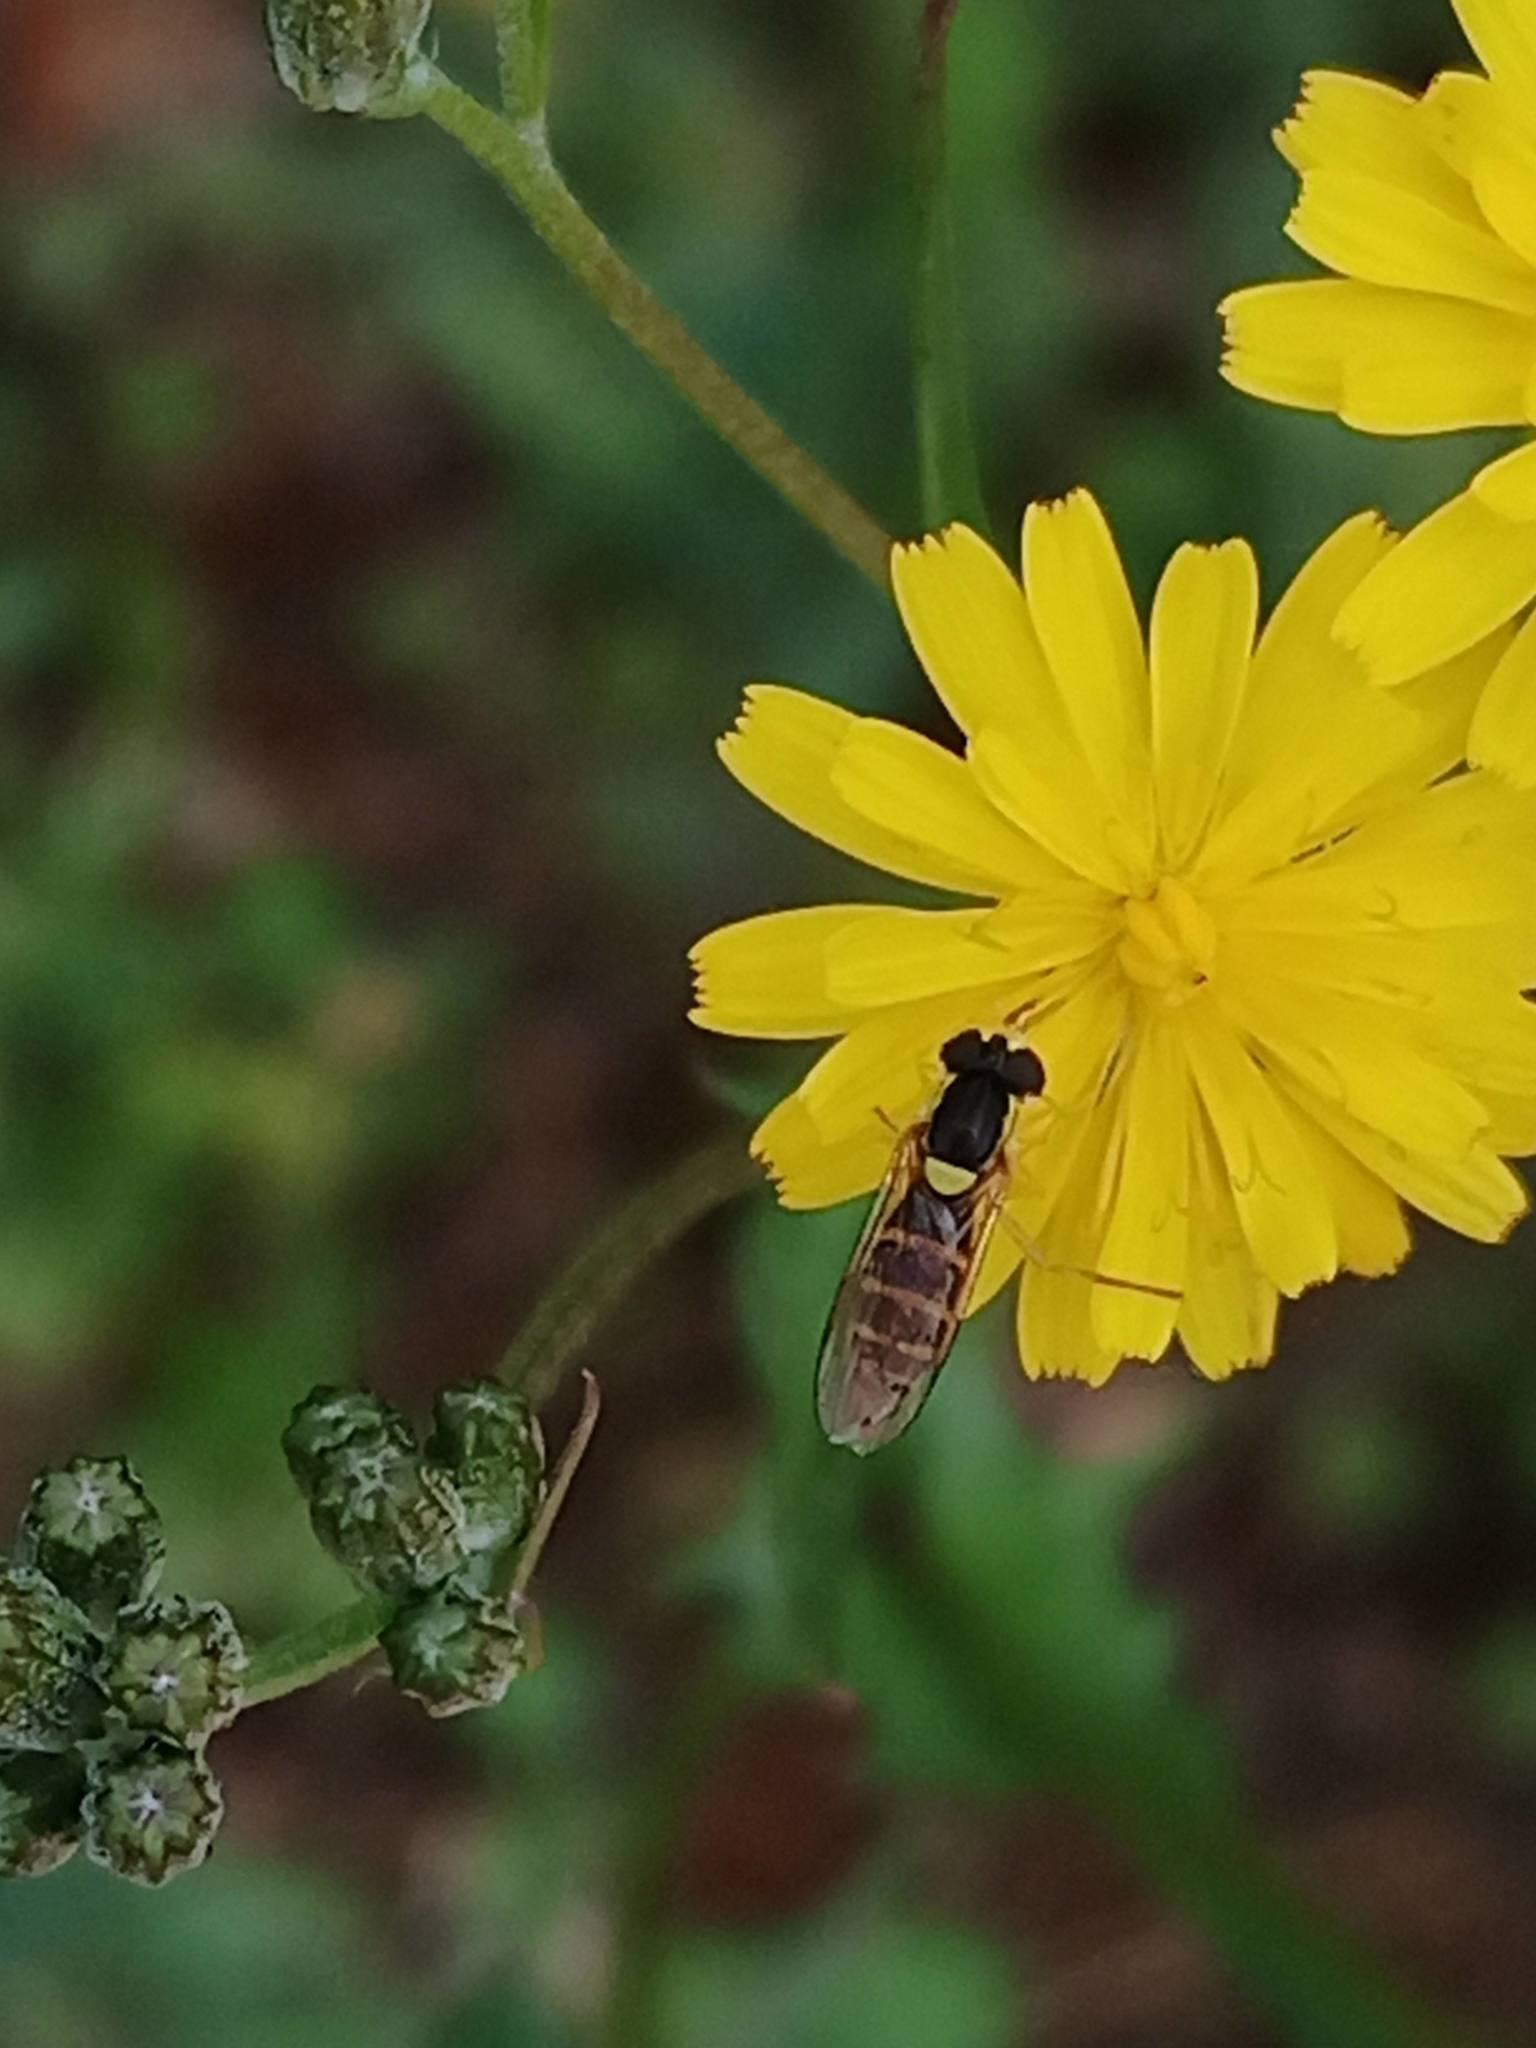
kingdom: Animalia
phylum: Arthropoda
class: Insecta
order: Diptera
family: Syrphidae
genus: Sphaerophoria
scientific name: Sphaerophoria
